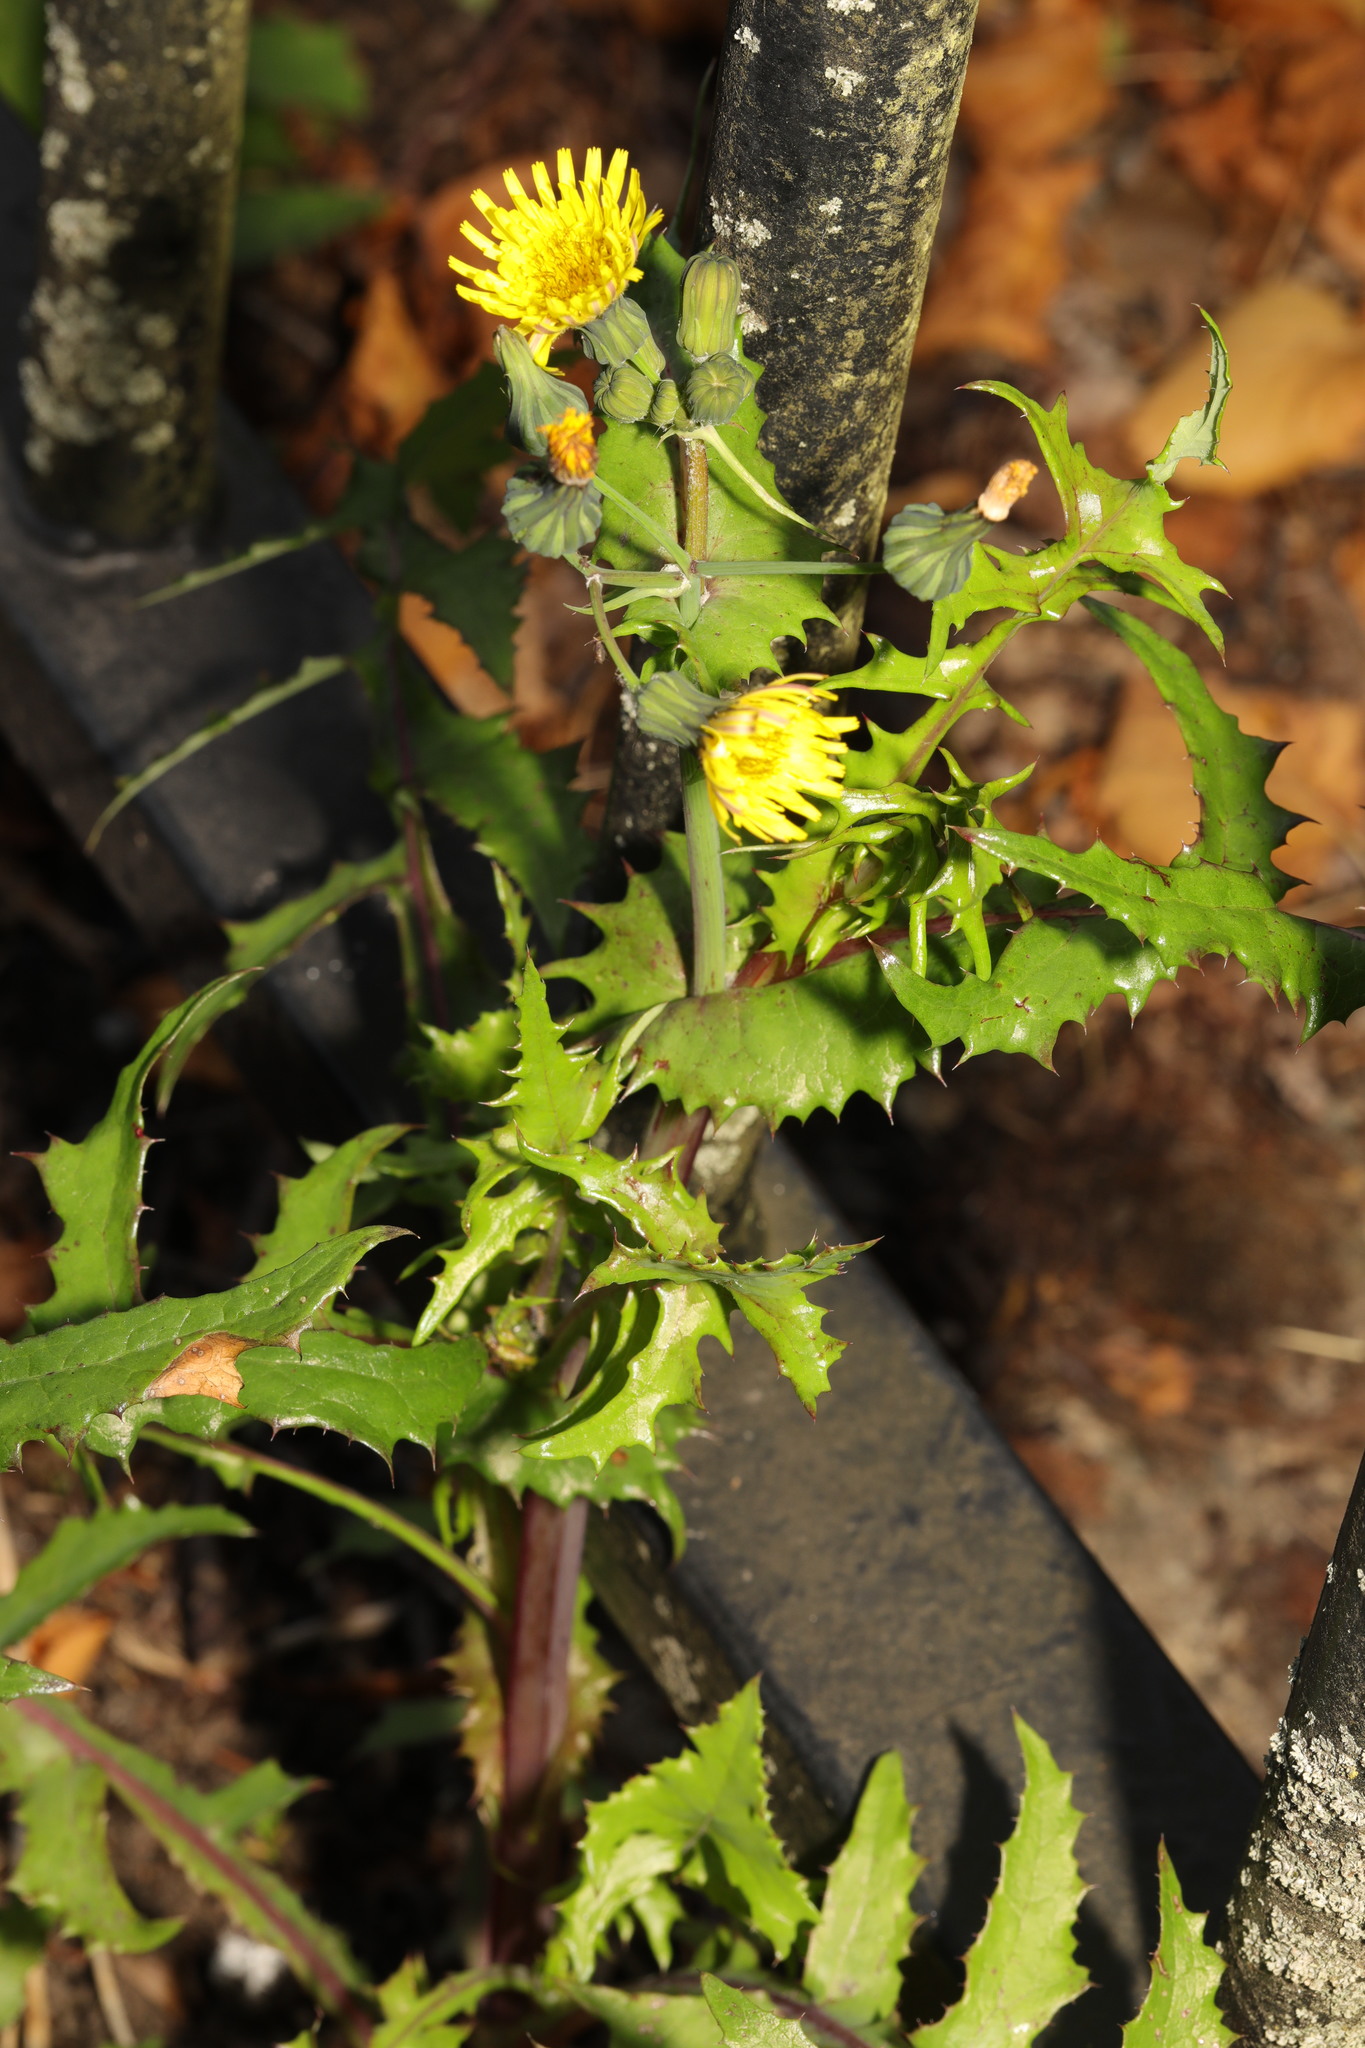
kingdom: Plantae
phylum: Tracheophyta
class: Magnoliopsida
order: Asterales
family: Asteraceae
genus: Sonchus
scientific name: Sonchus asper
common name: Prickly sow-thistle
